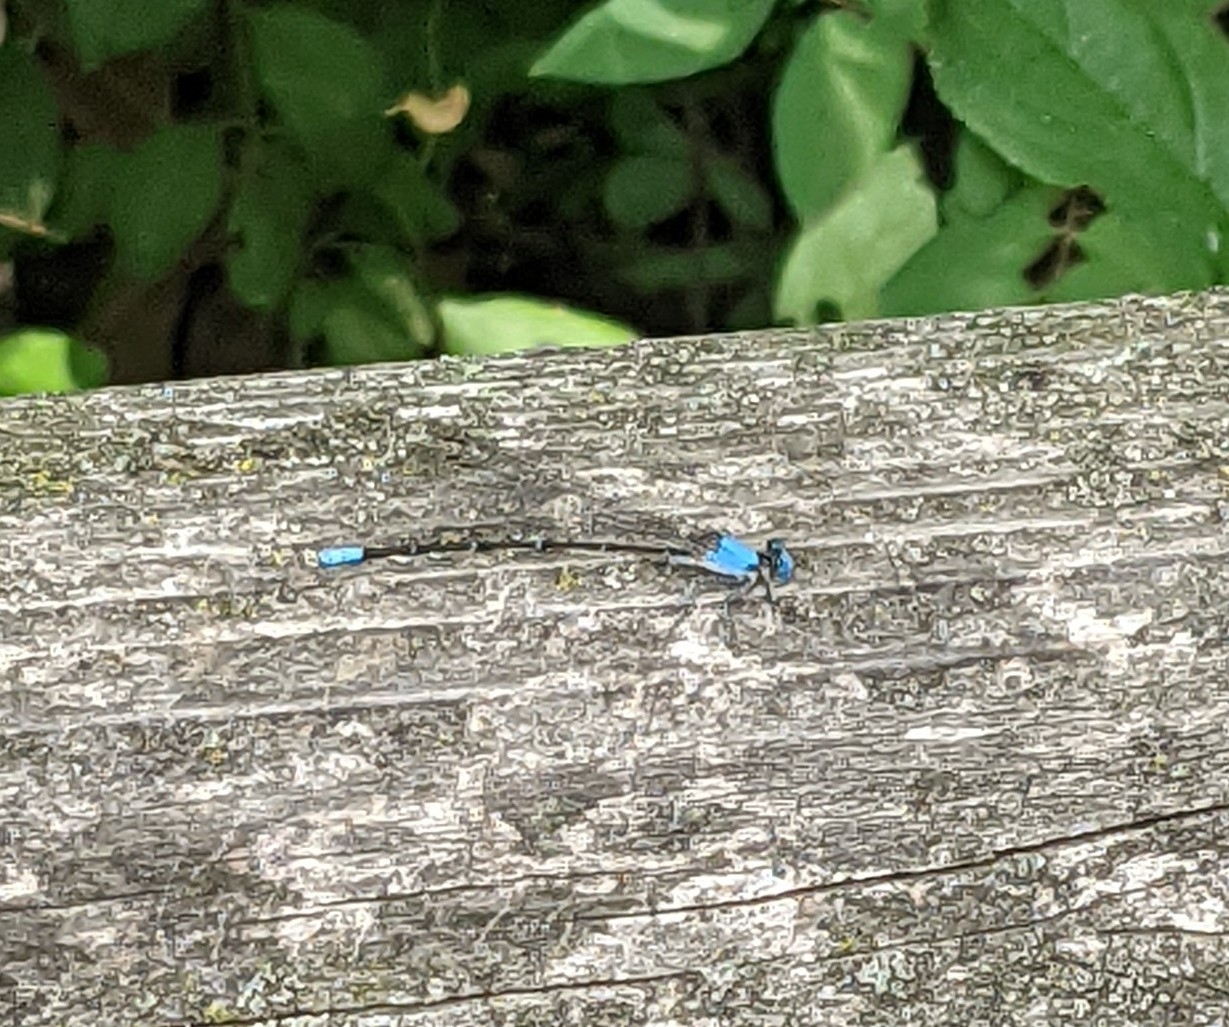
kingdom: Animalia
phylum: Arthropoda
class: Insecta
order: Odonata
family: Coenagrionidae
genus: Argia
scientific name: Argia apicalis
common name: Blue-fronted dancer
